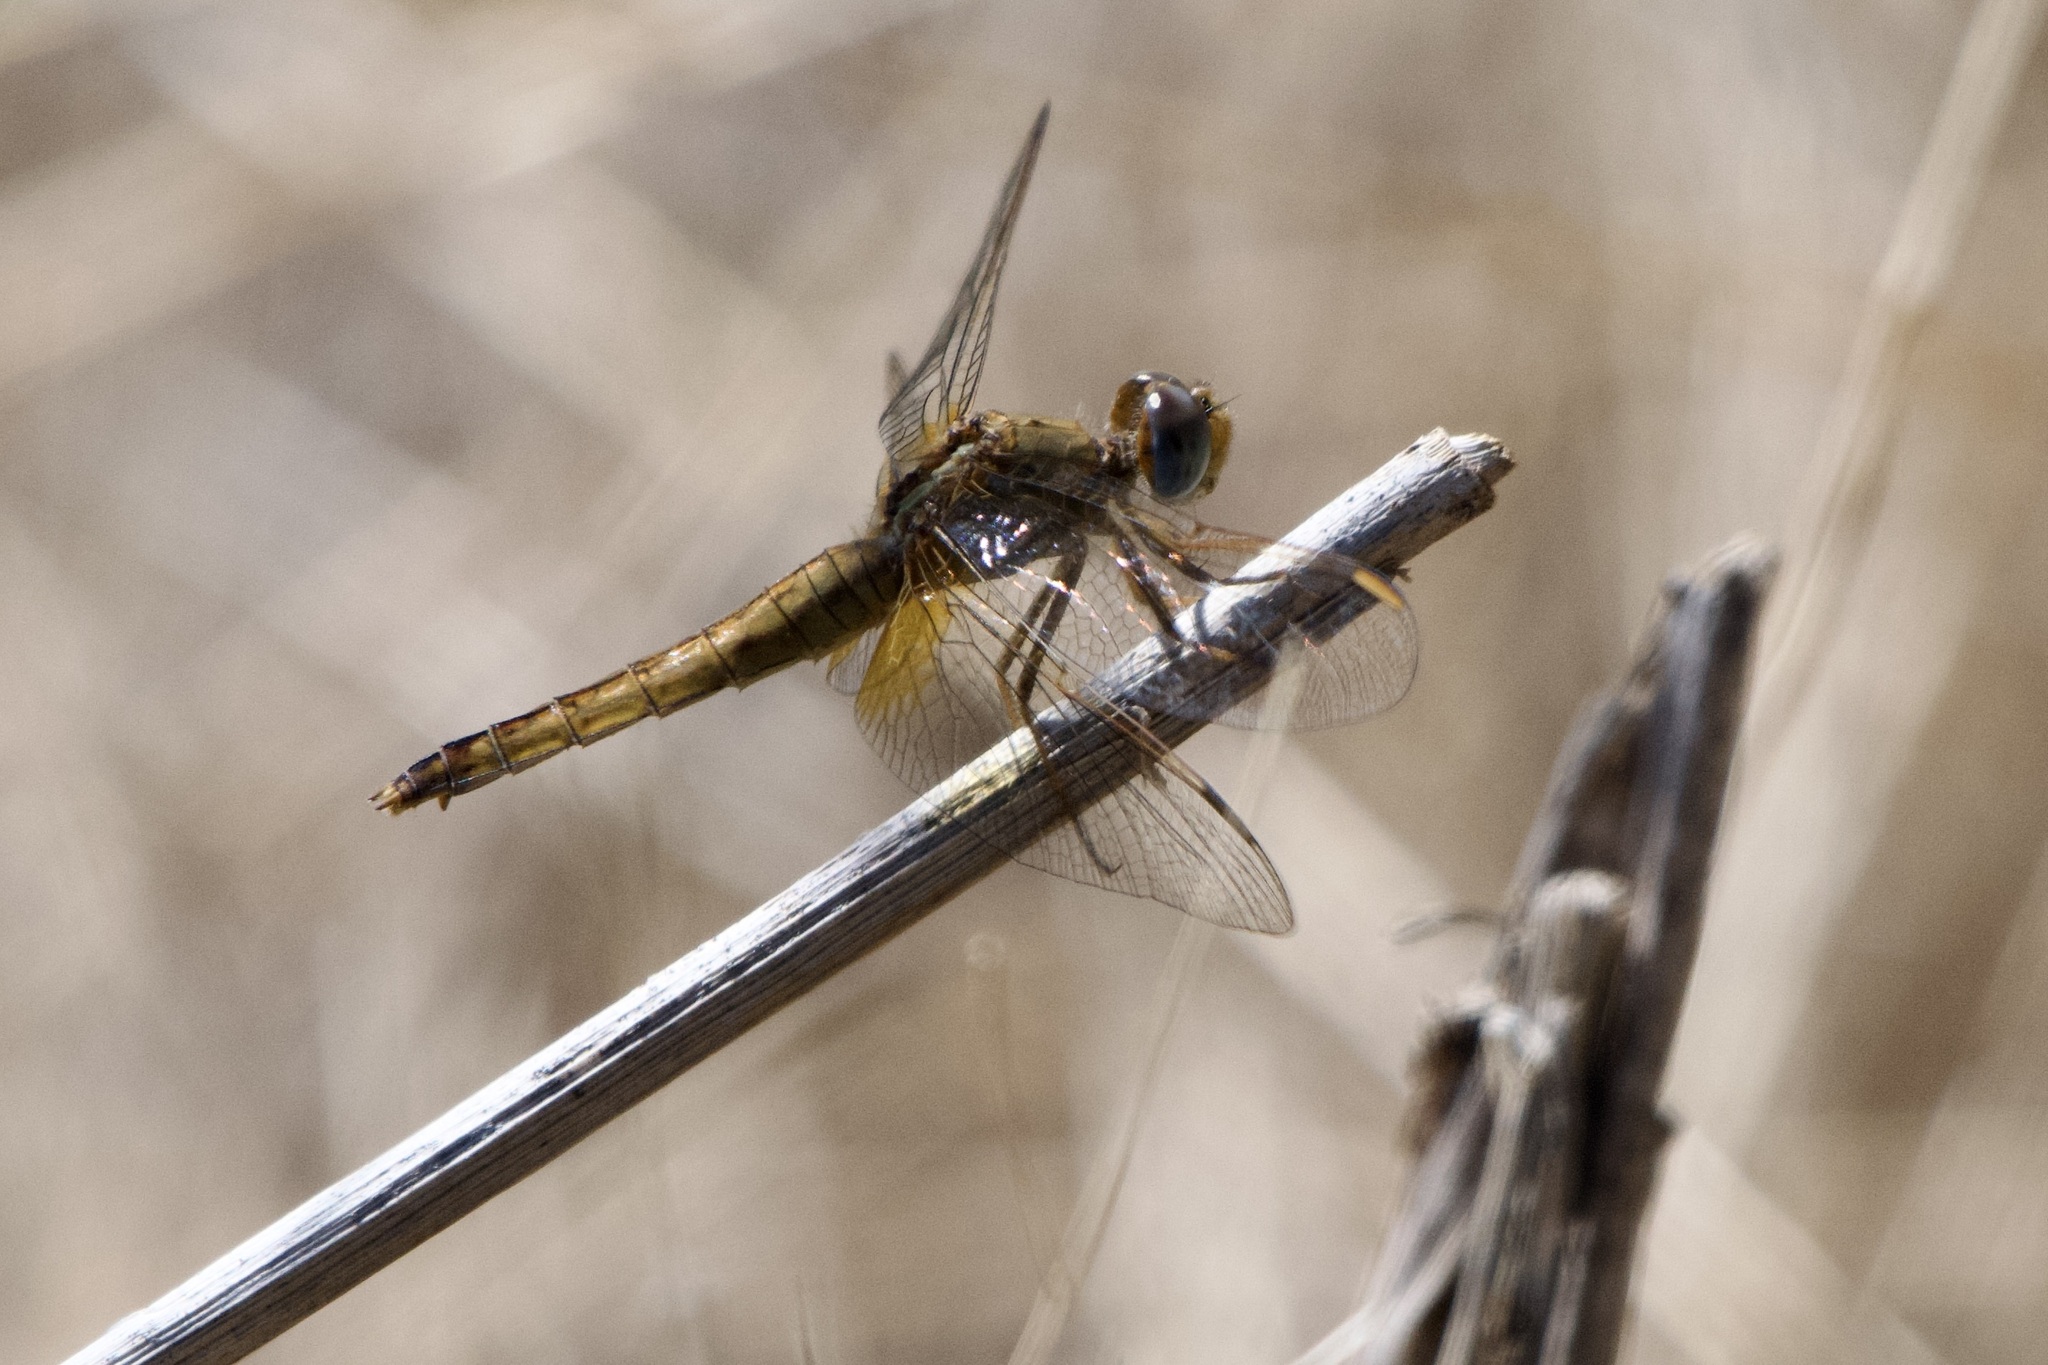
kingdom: Animalia
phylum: Arthropoda
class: Insecta
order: Odonata
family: Libellulidae
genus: Crocothemis
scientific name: Crocothemis erythraea
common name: Scarlet dragonfly
